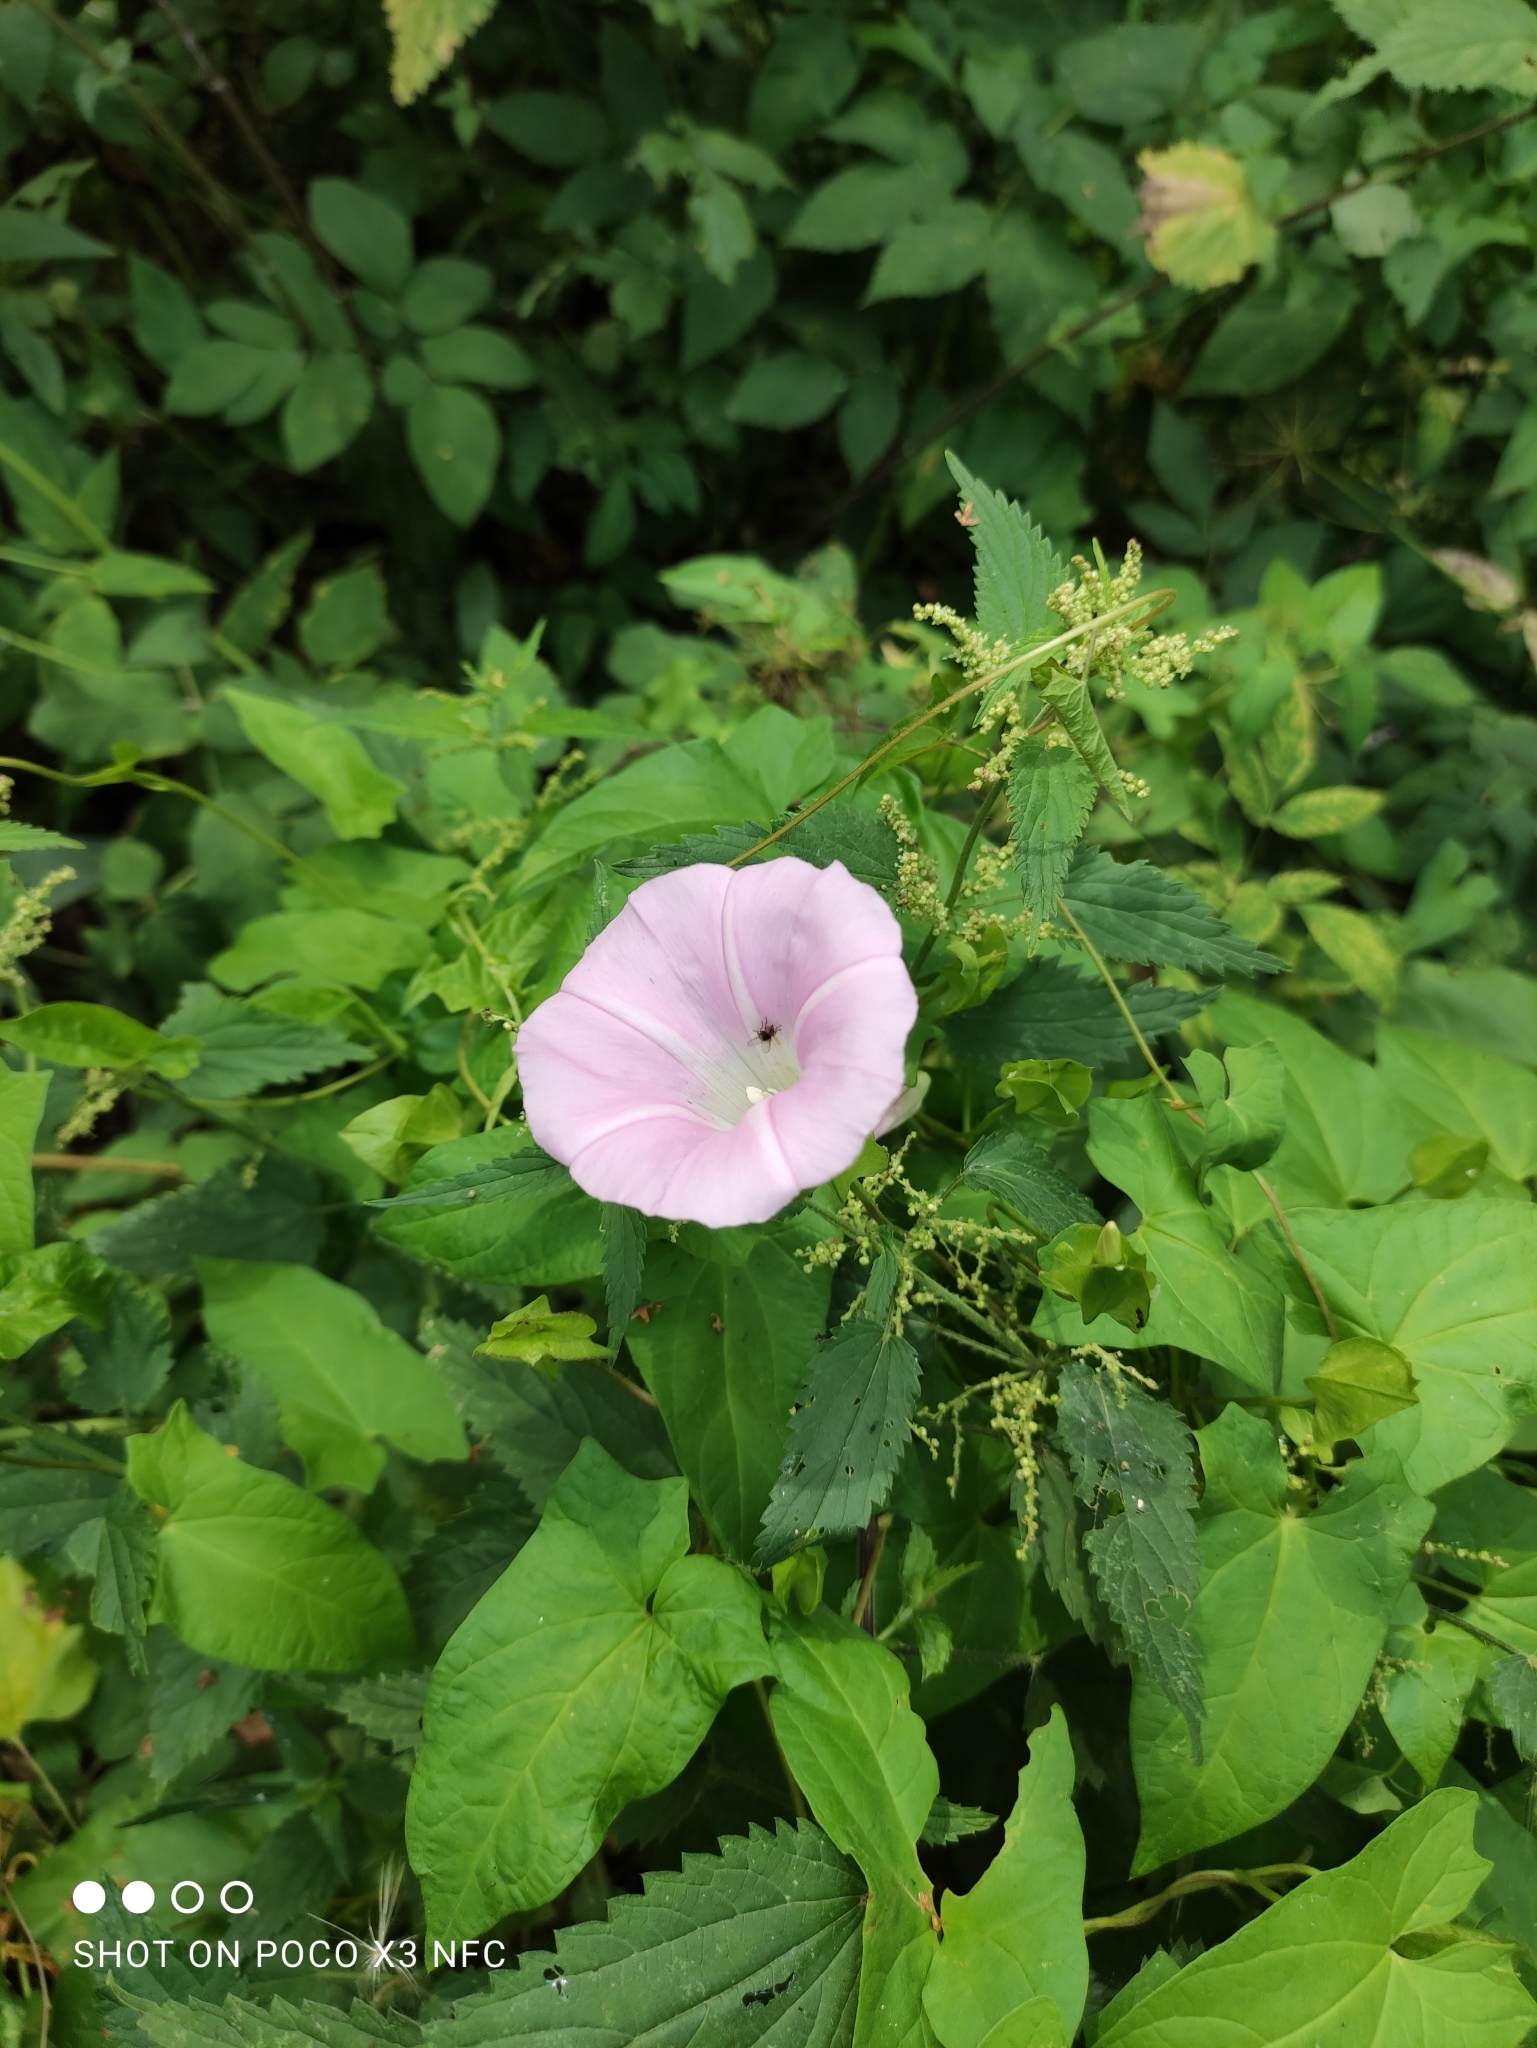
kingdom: Plantae
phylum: Tracheophyta
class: Magnoliopsida
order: Solanales
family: Convolvulaceae
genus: Calystegia
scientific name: Calystegia sepium
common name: Hedge bindweed
